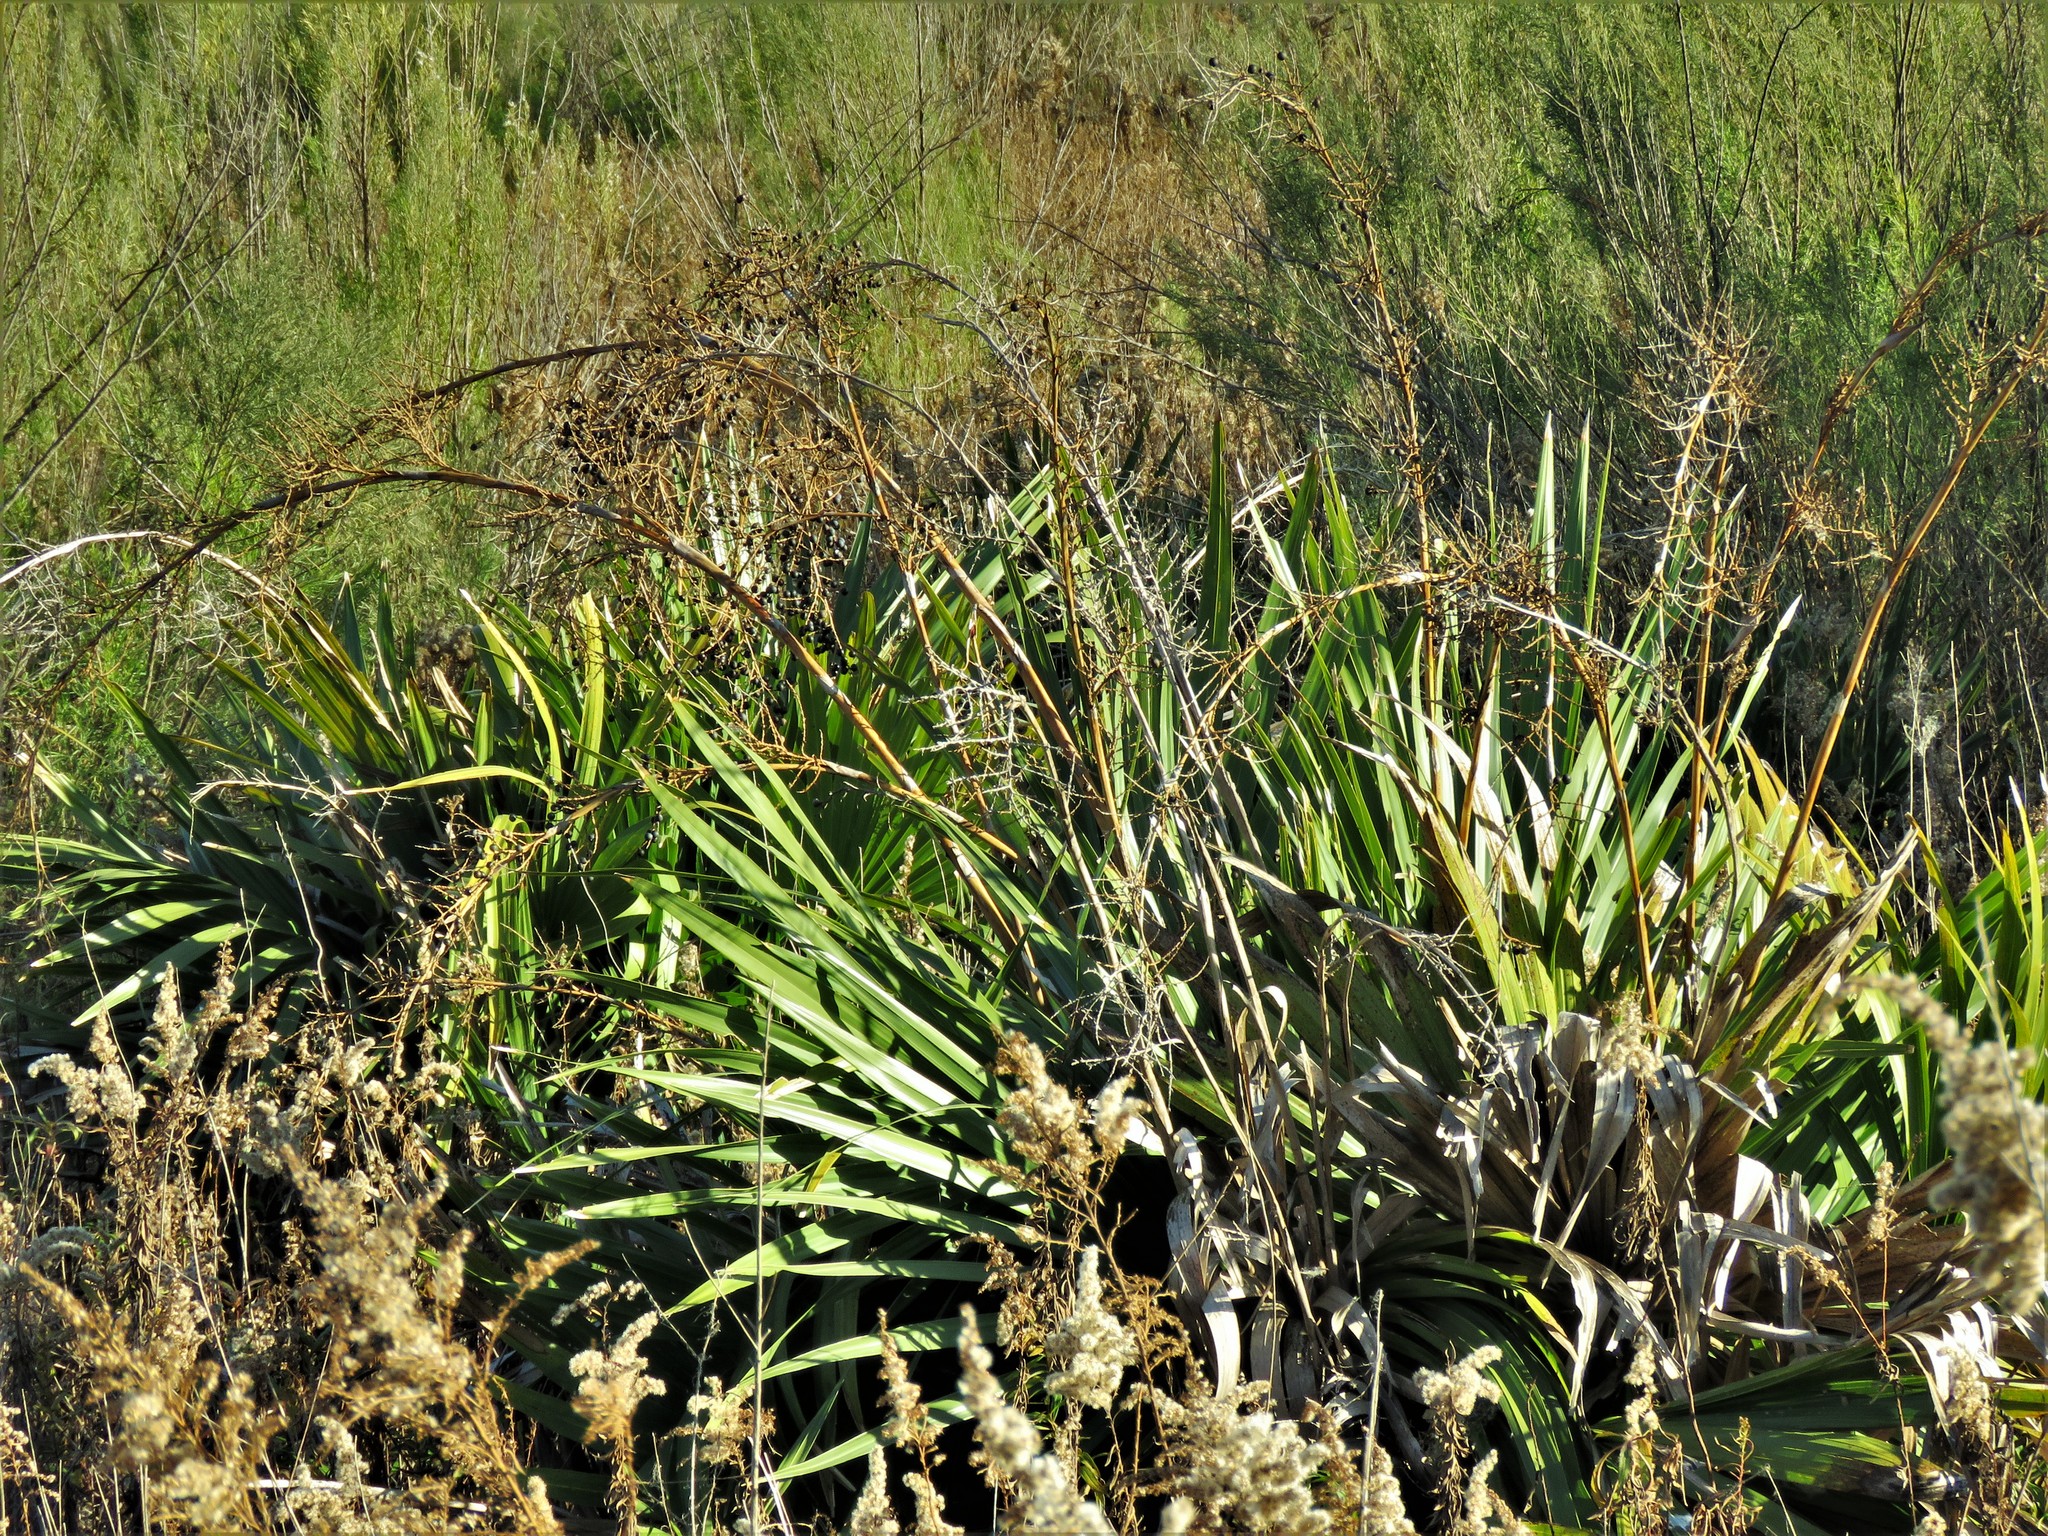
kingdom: Plantae
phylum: Tracheophyta
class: Liliopsida
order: Arecales
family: Arecaceae
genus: Sabal
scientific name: Sabal minor
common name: Dwarf palmetto
